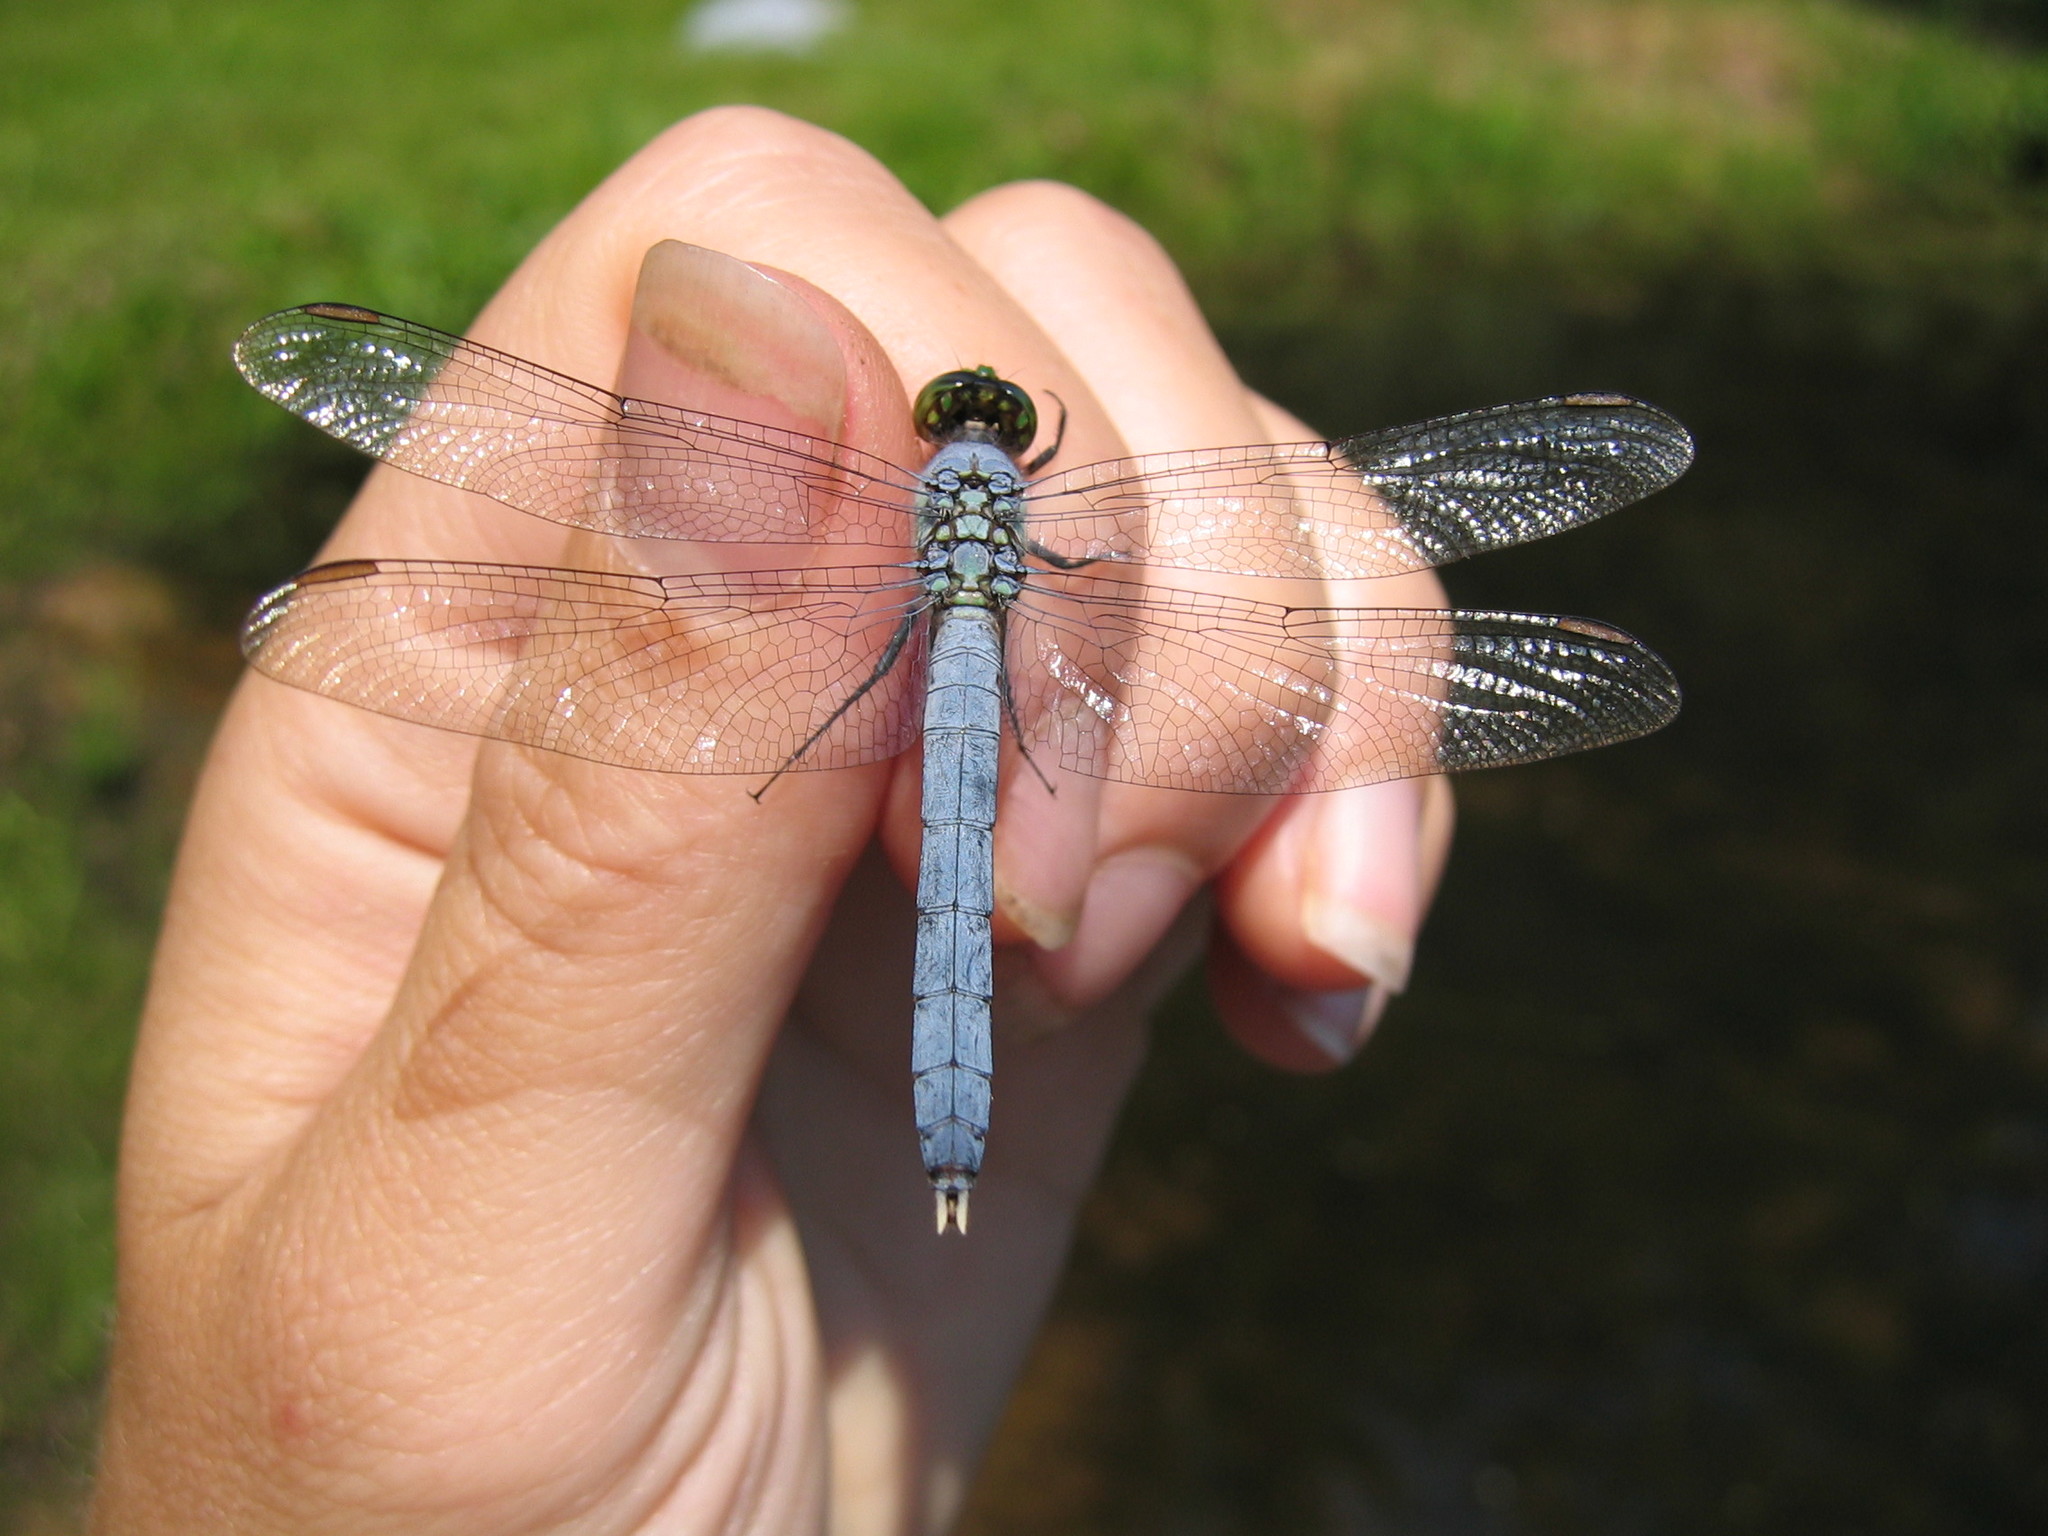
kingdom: Animalia
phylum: Arthropoda
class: Insecta
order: Odonata
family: Libellulidae
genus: Erythemis
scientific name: Erythemis simplicicollis
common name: Eastern pondhawk
